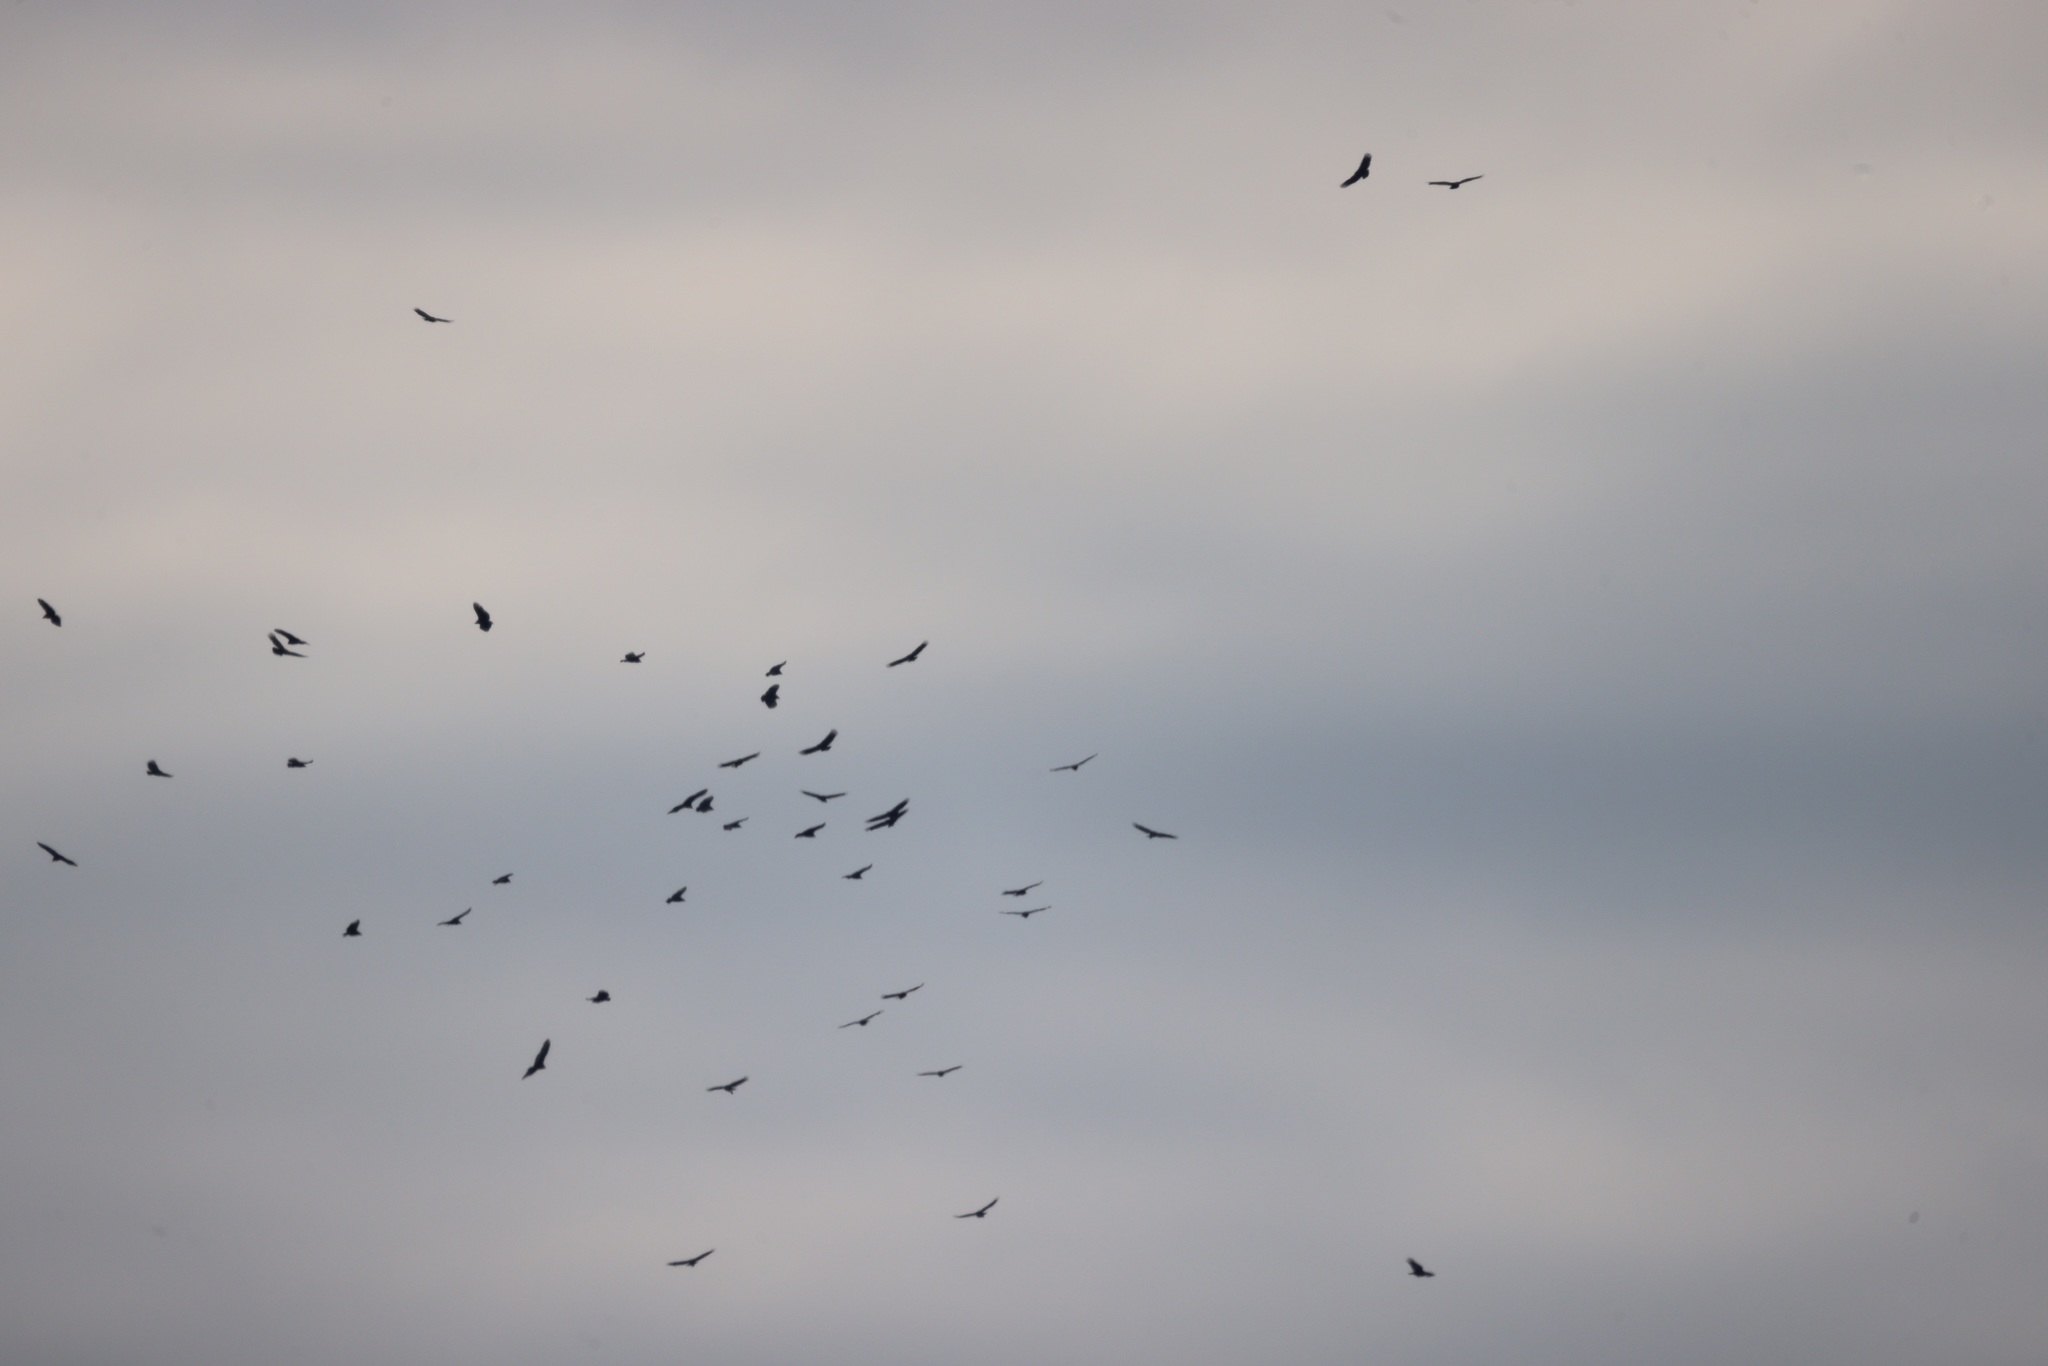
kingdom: Animalia
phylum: Chordata
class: Aves
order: Accipitriformes
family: Cathartidae
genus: Coragyps
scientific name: Coragyps atratus
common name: Black vulture
